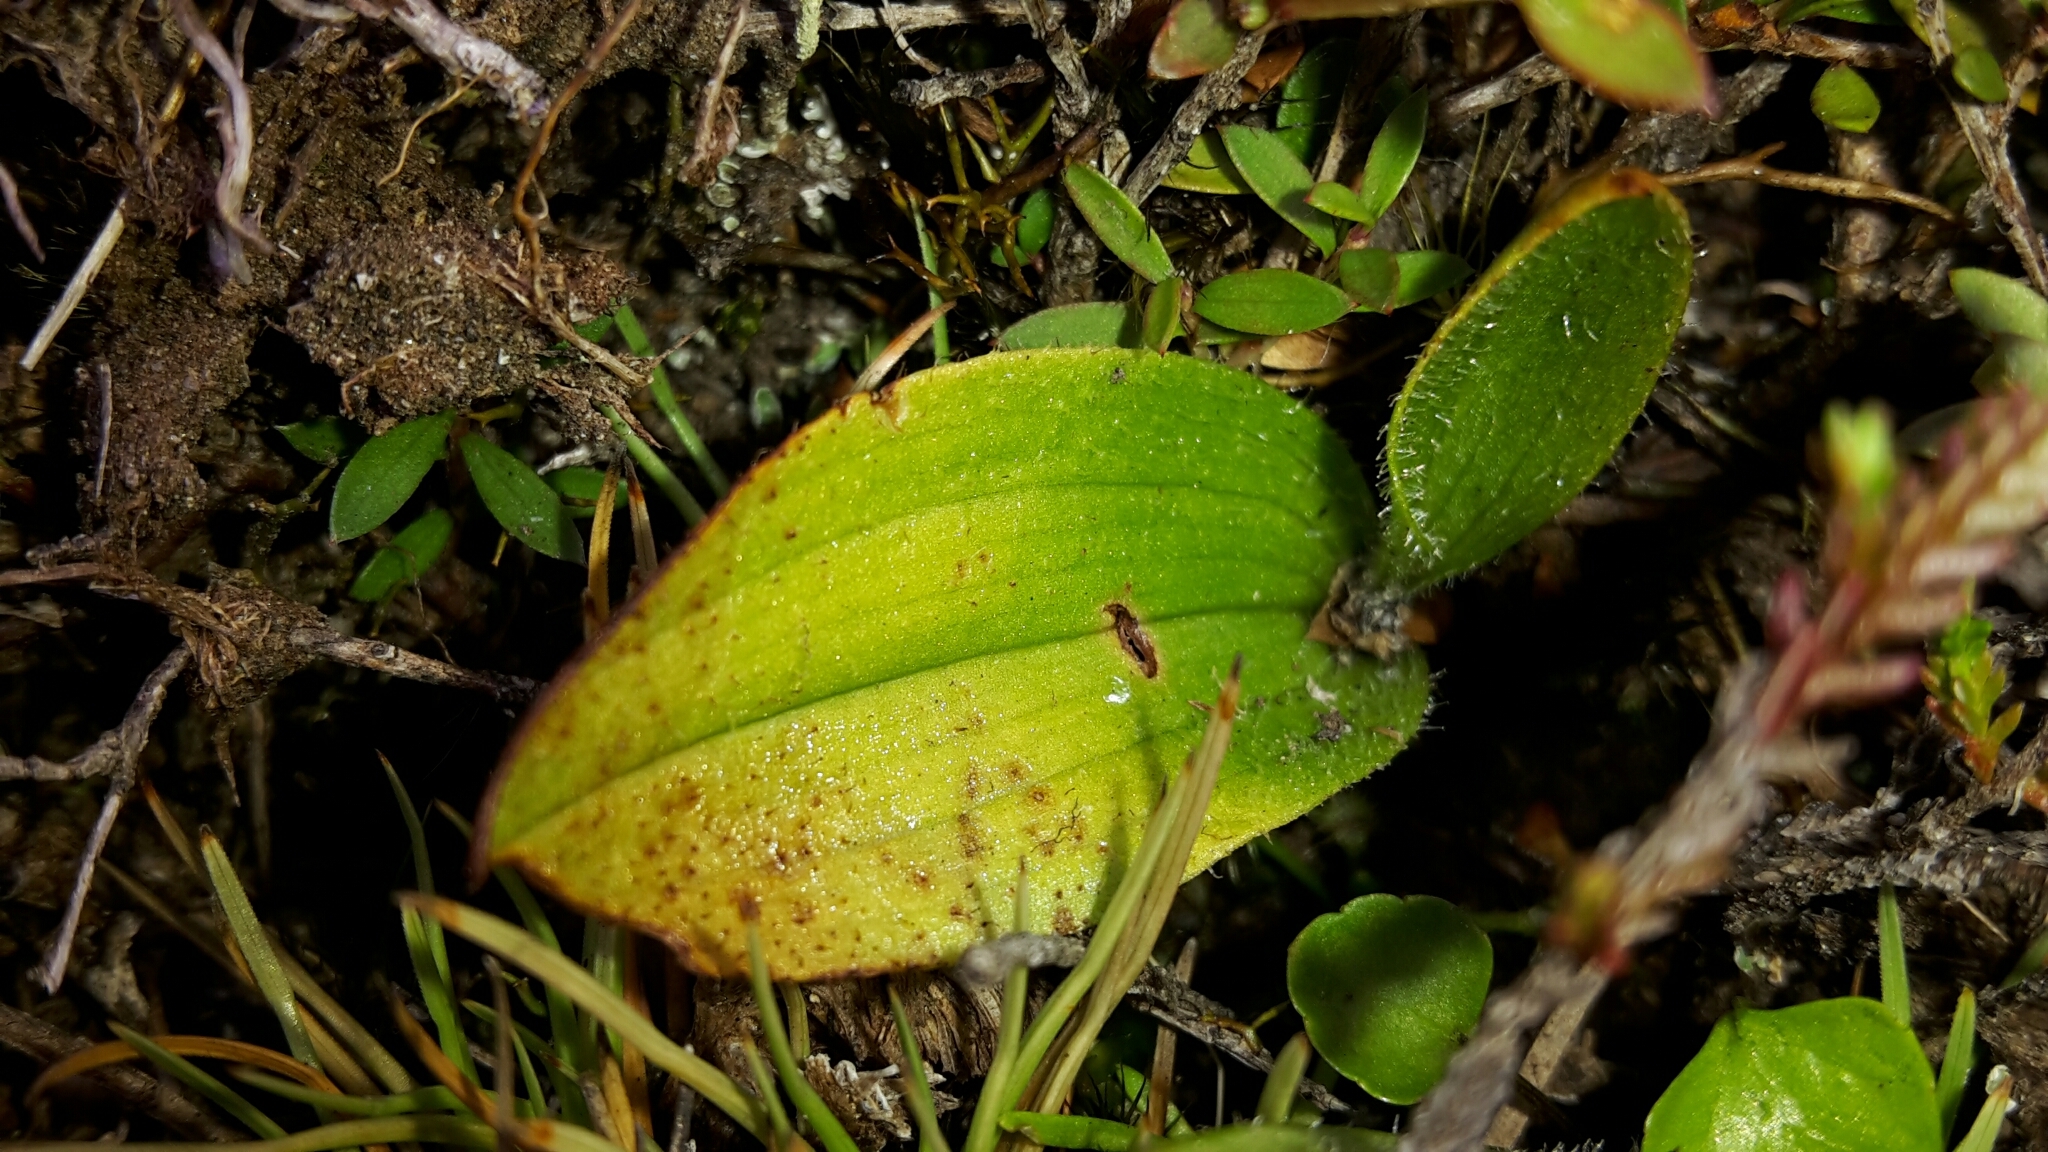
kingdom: Plantae
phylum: Tracheophyta
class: Liliopsida
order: Asparagales
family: Orchidaceae
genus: Aporostylis
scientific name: Aporostylis bifolia
